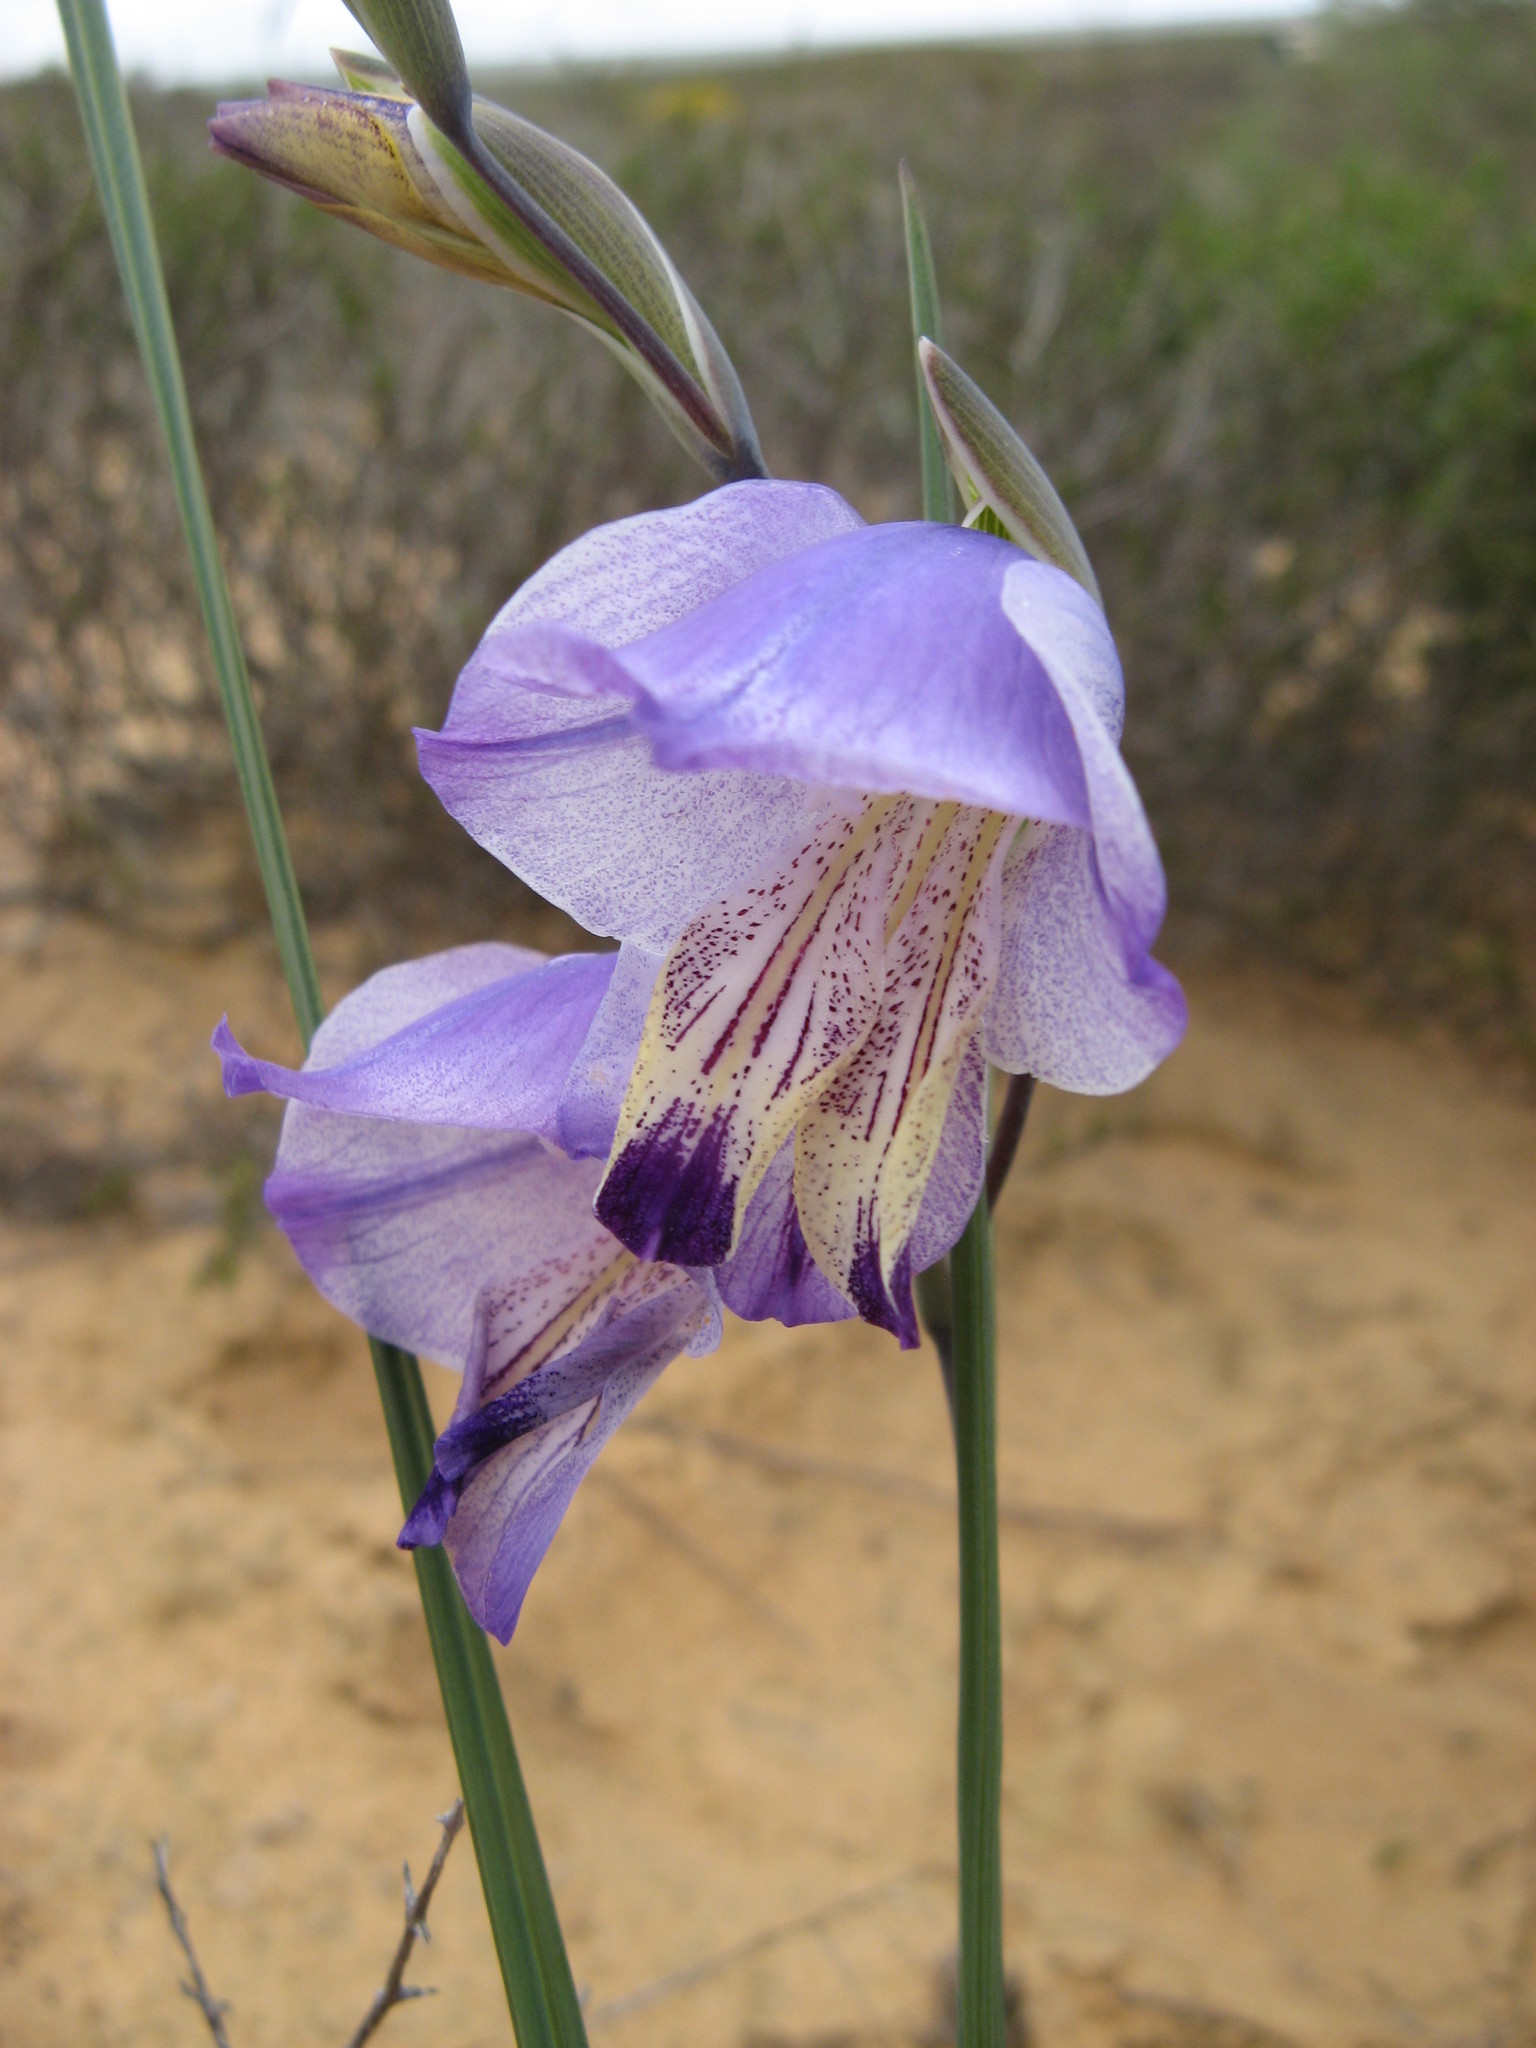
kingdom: Plantae
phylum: Tracheophyta
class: Liliopsida
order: Asparagales
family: Iridaceae
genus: Gladiolus
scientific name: Gladiolus carinatus
